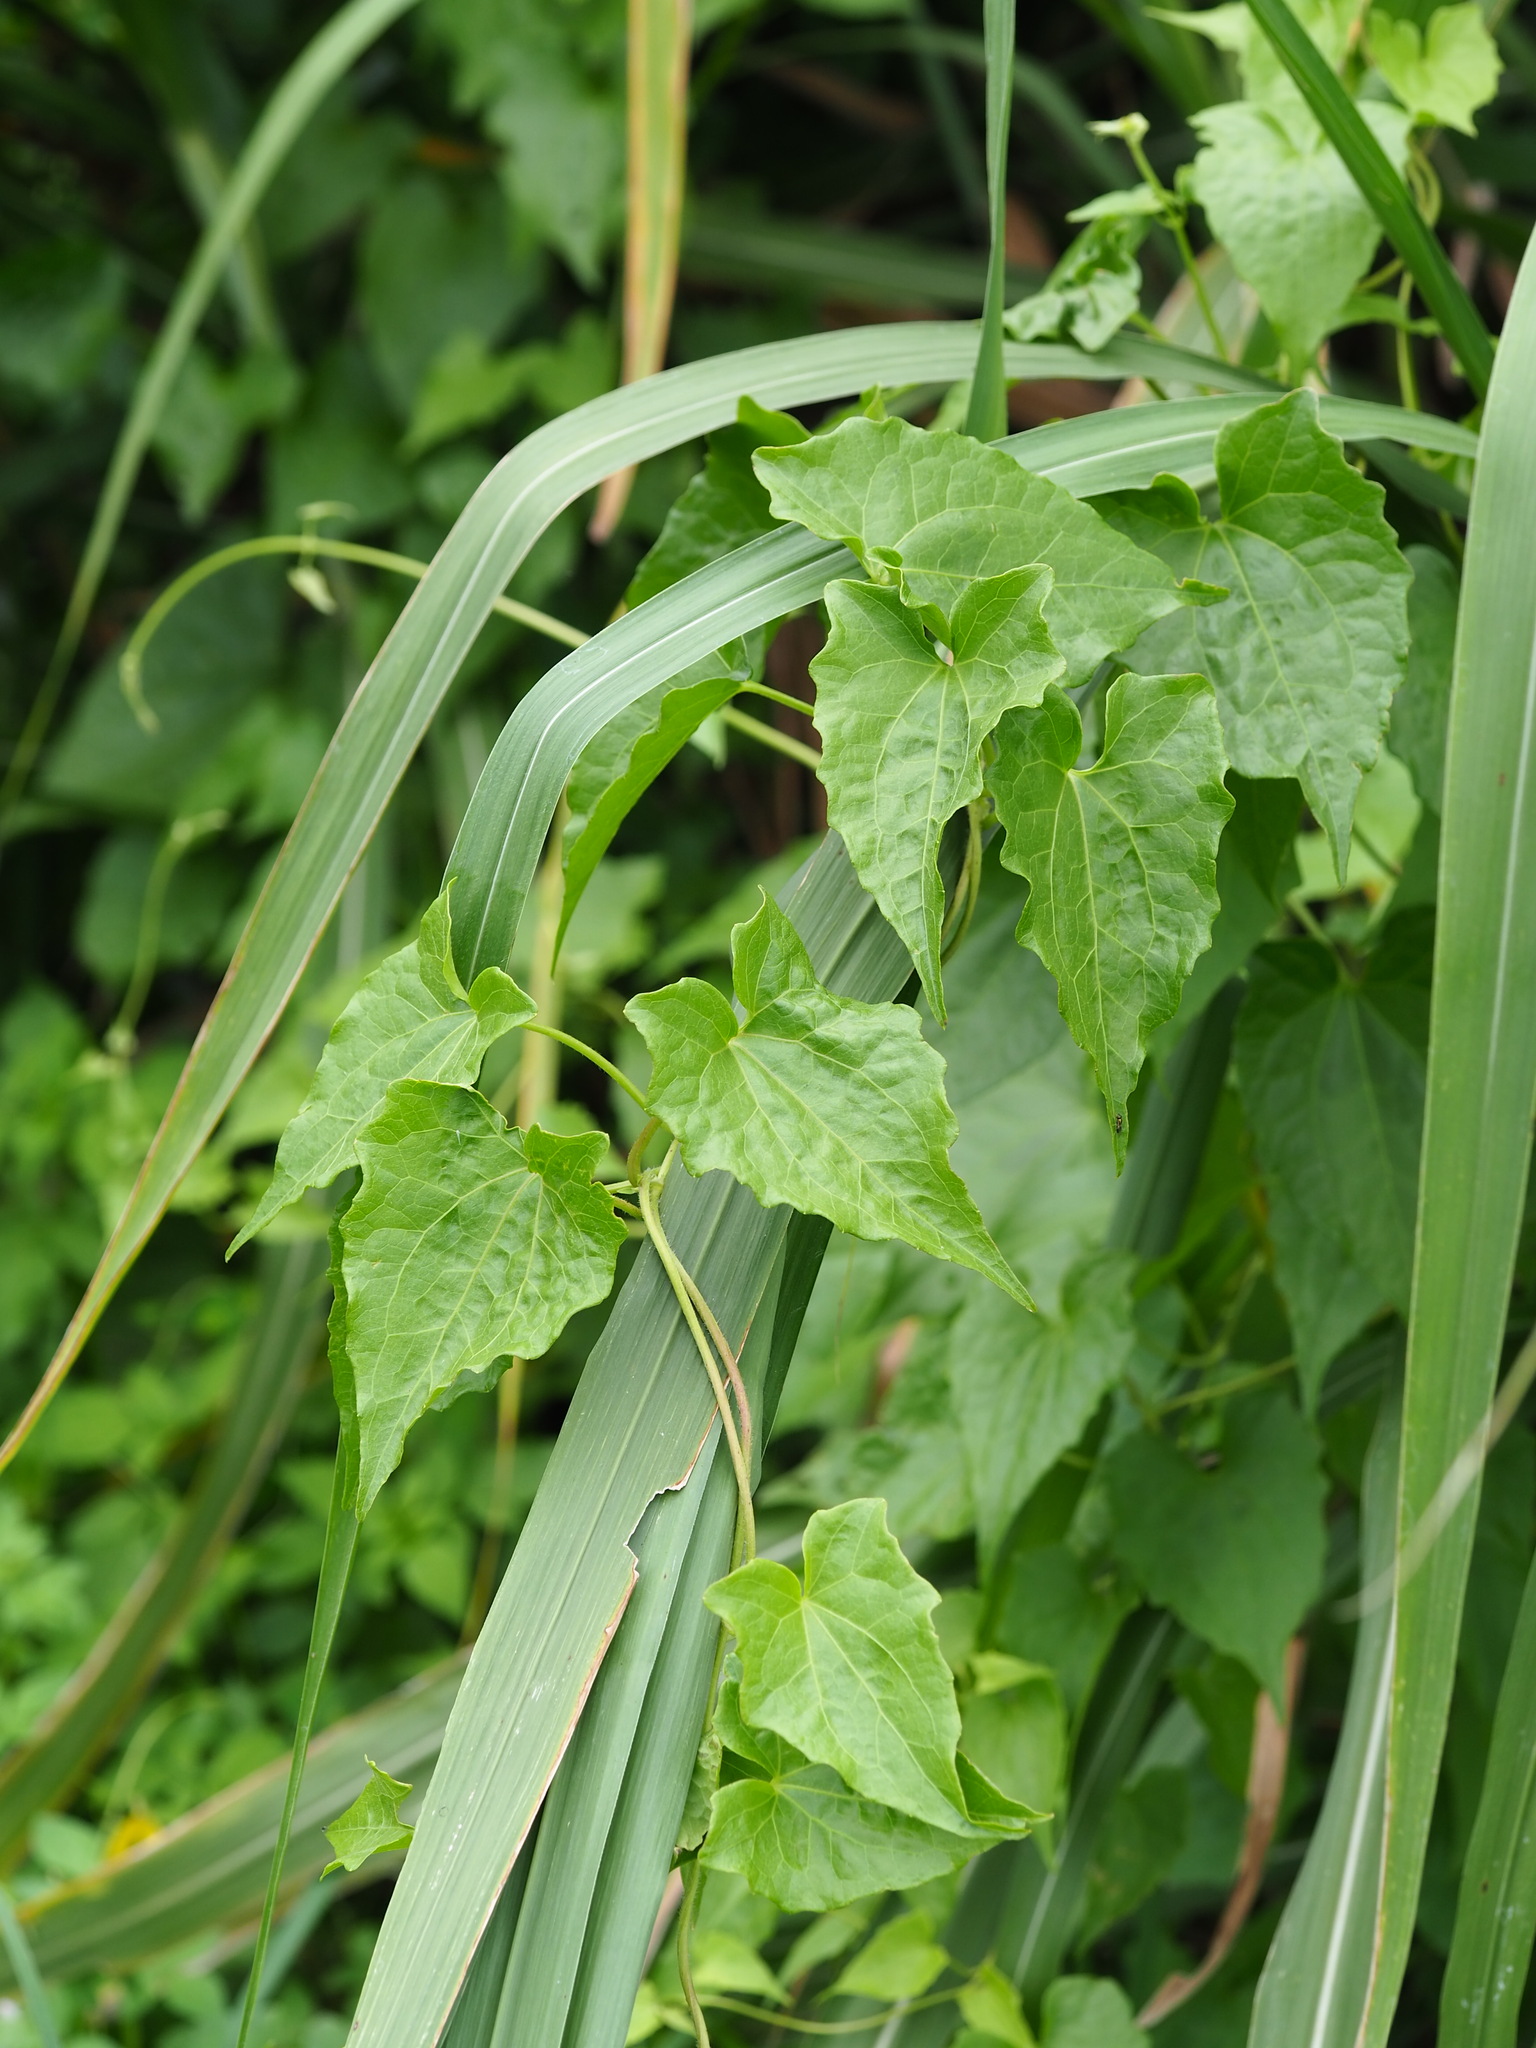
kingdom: Plantae
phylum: Tracheophyta
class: Magnoliopsida
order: Asterales
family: Asteraceae
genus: Mikania
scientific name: Mikania micrantha
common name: Mile-a-minute
